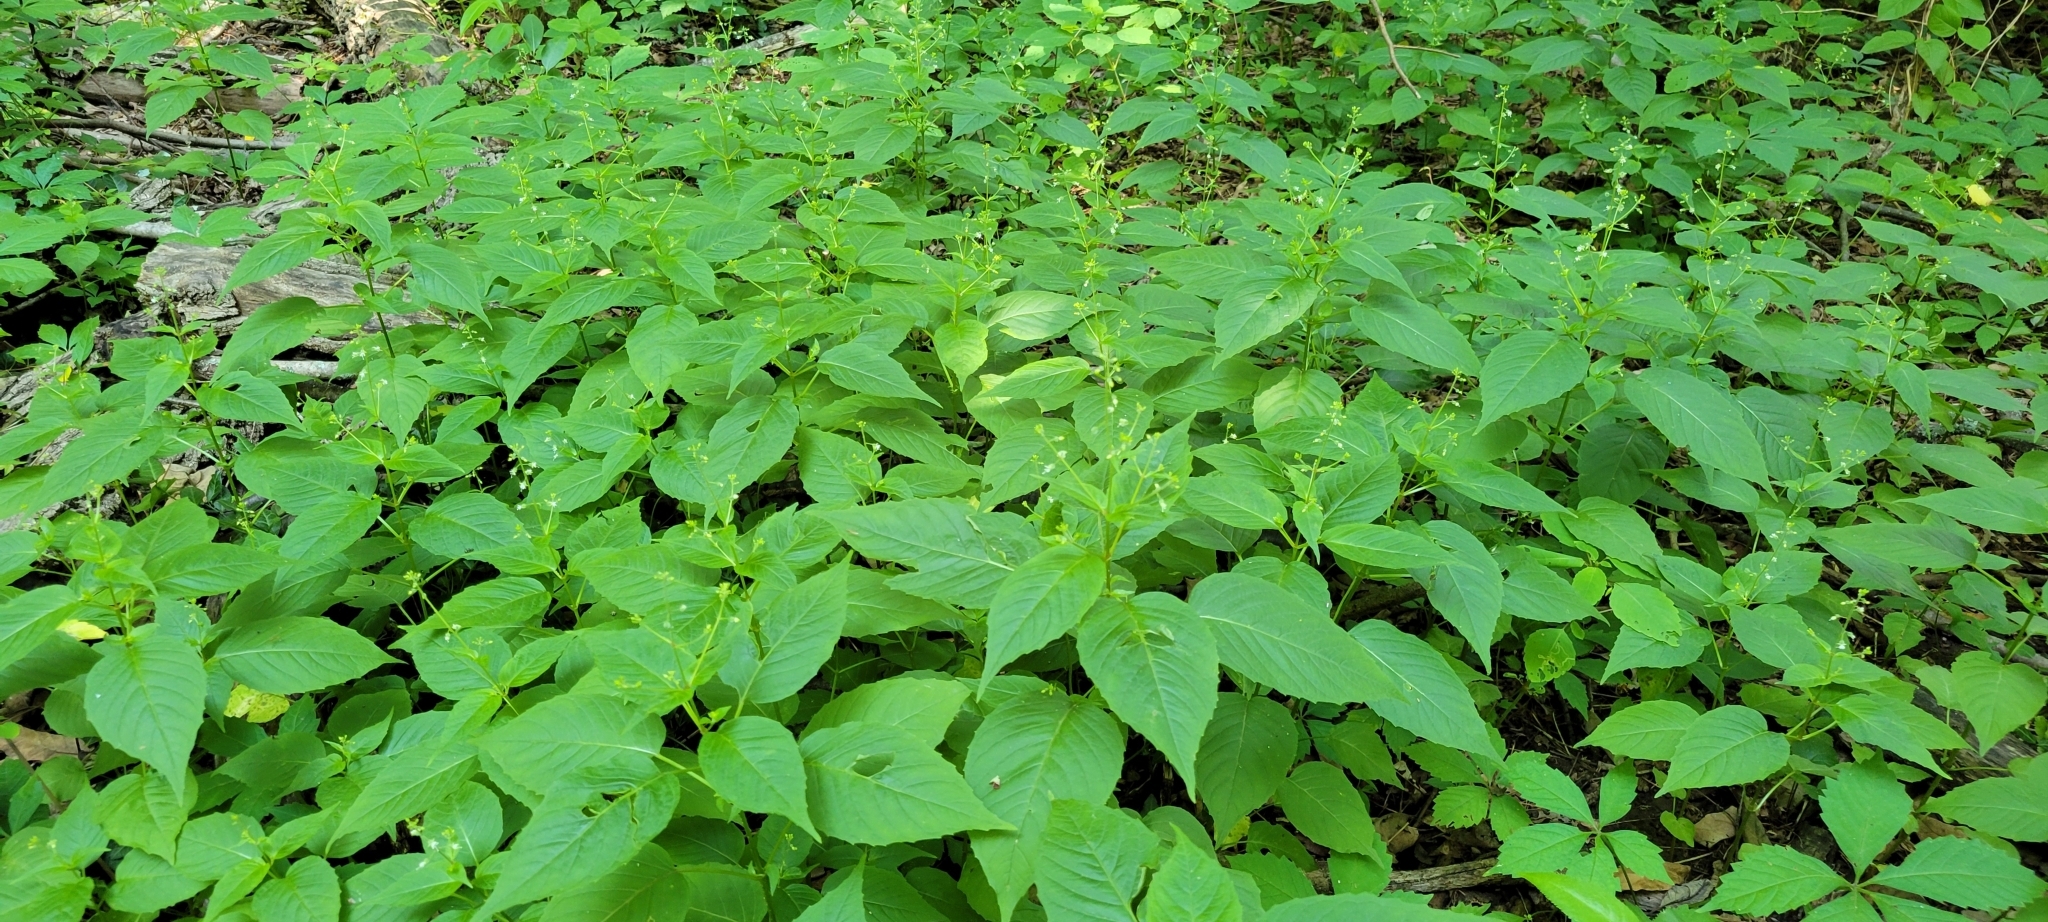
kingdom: Plantae
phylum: Tracheophyta
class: Magnoliopsida
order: Myrtales
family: Onagraceae
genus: Circaea
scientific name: Circaea canadensis
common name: Broad-leaved enchanter's nightshade
